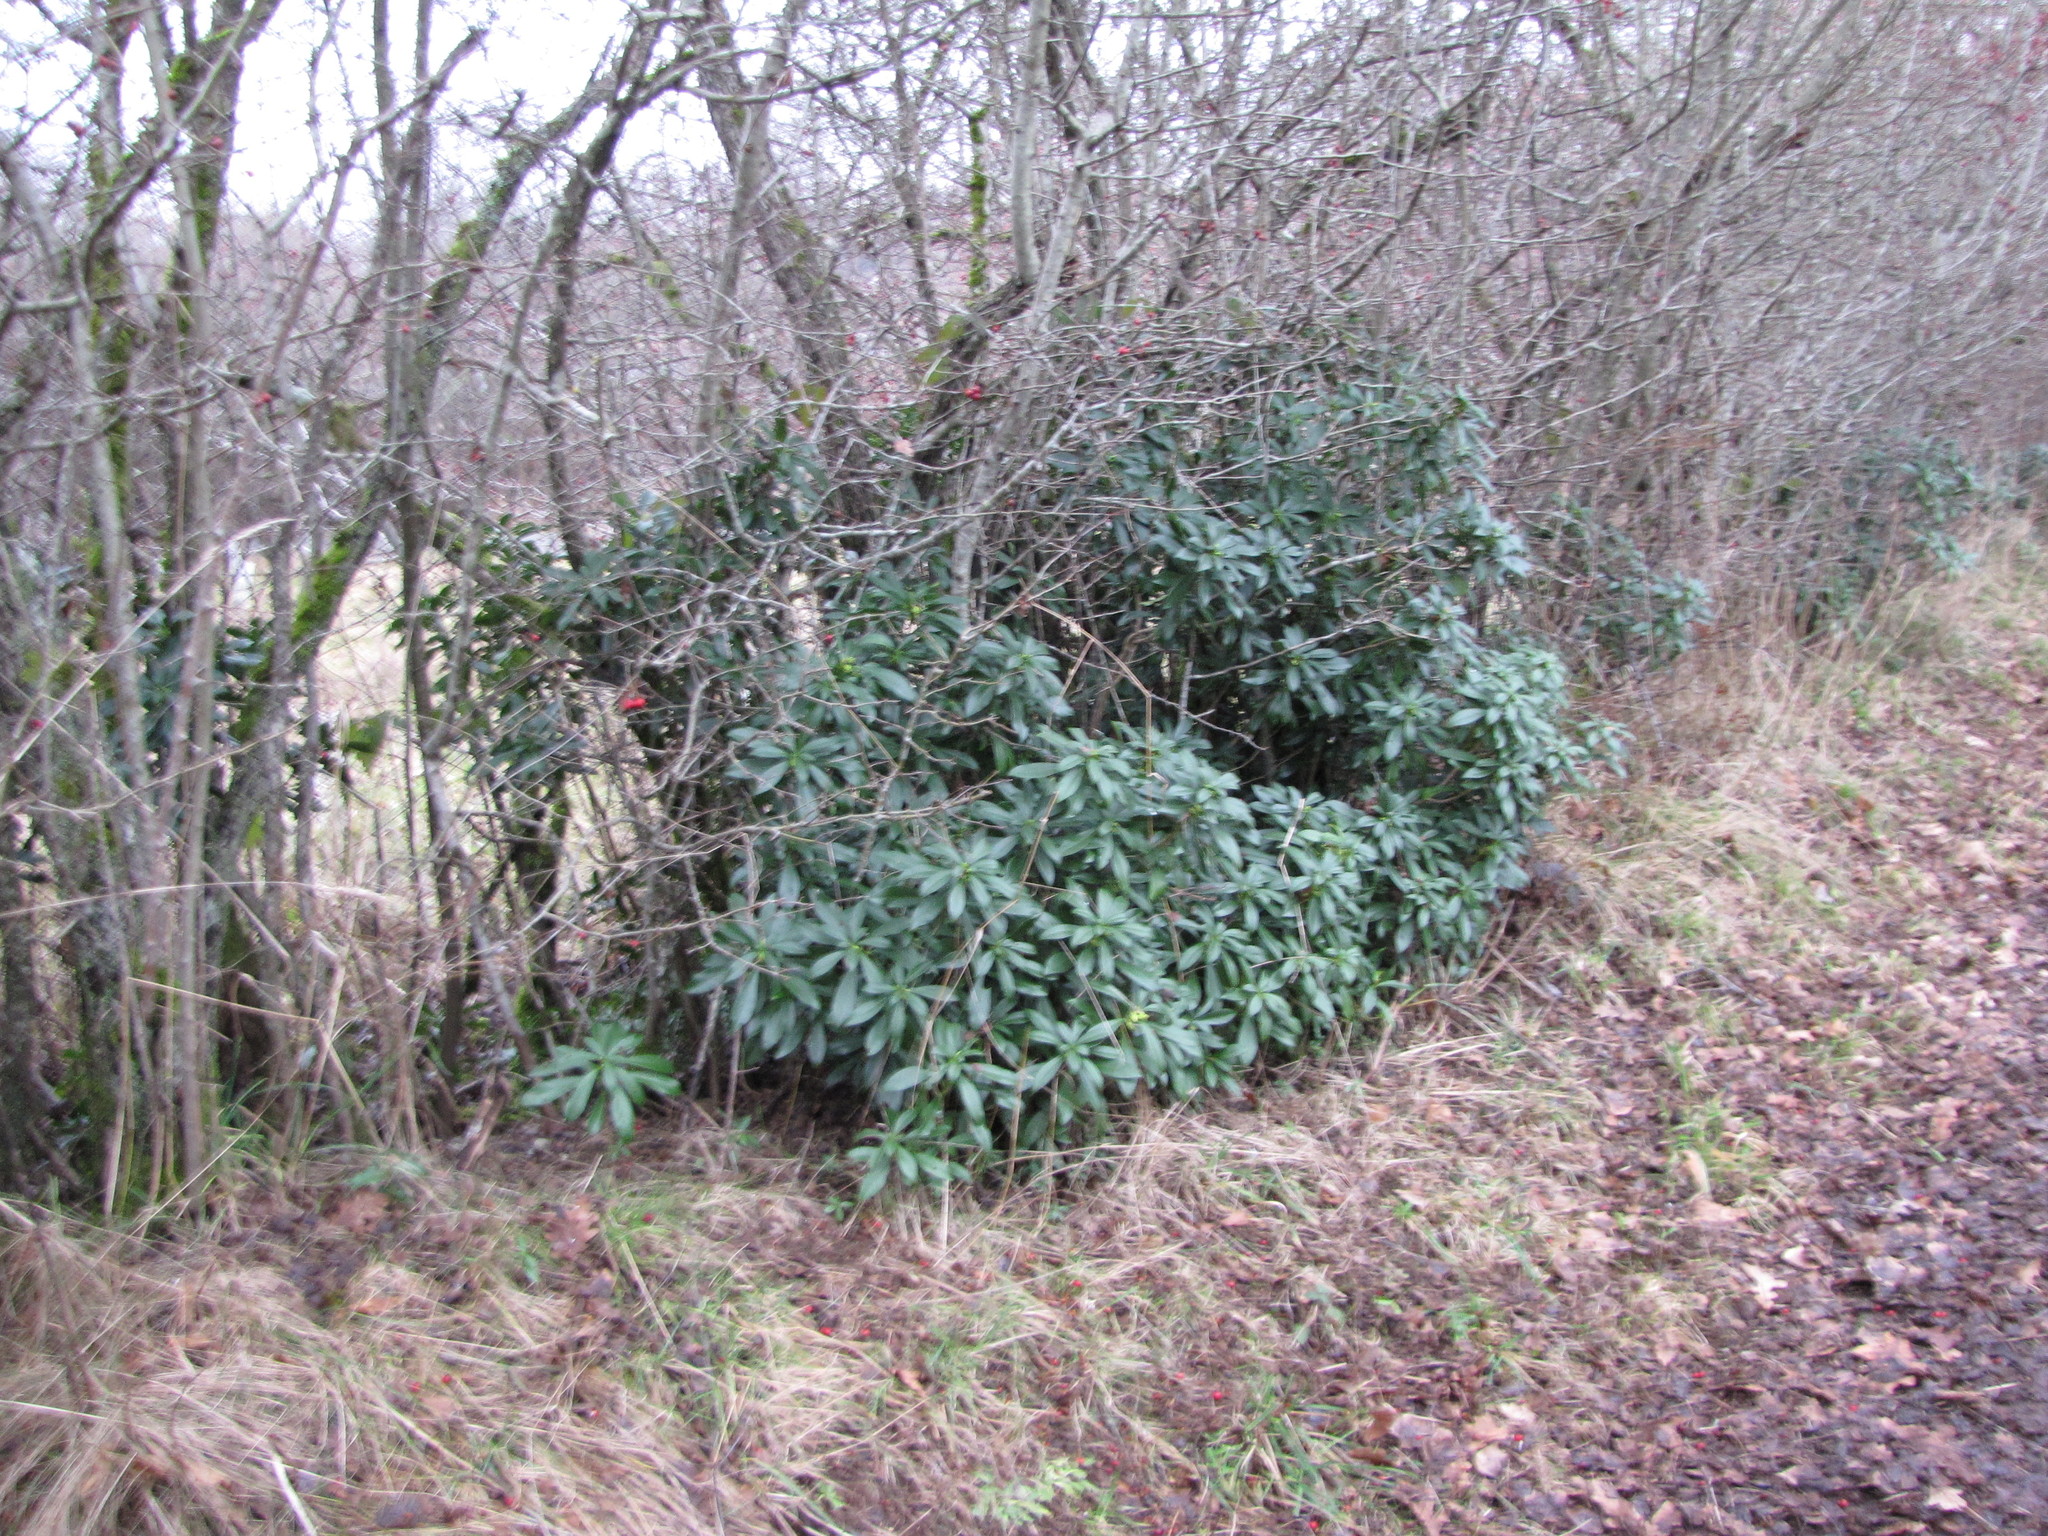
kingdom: Plantae
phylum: Tracheophyta
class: Magnoliopsida
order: Malvales
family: Thymelaeaceae
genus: Daphne
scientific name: Daphne laureola
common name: Spurge-laurel
